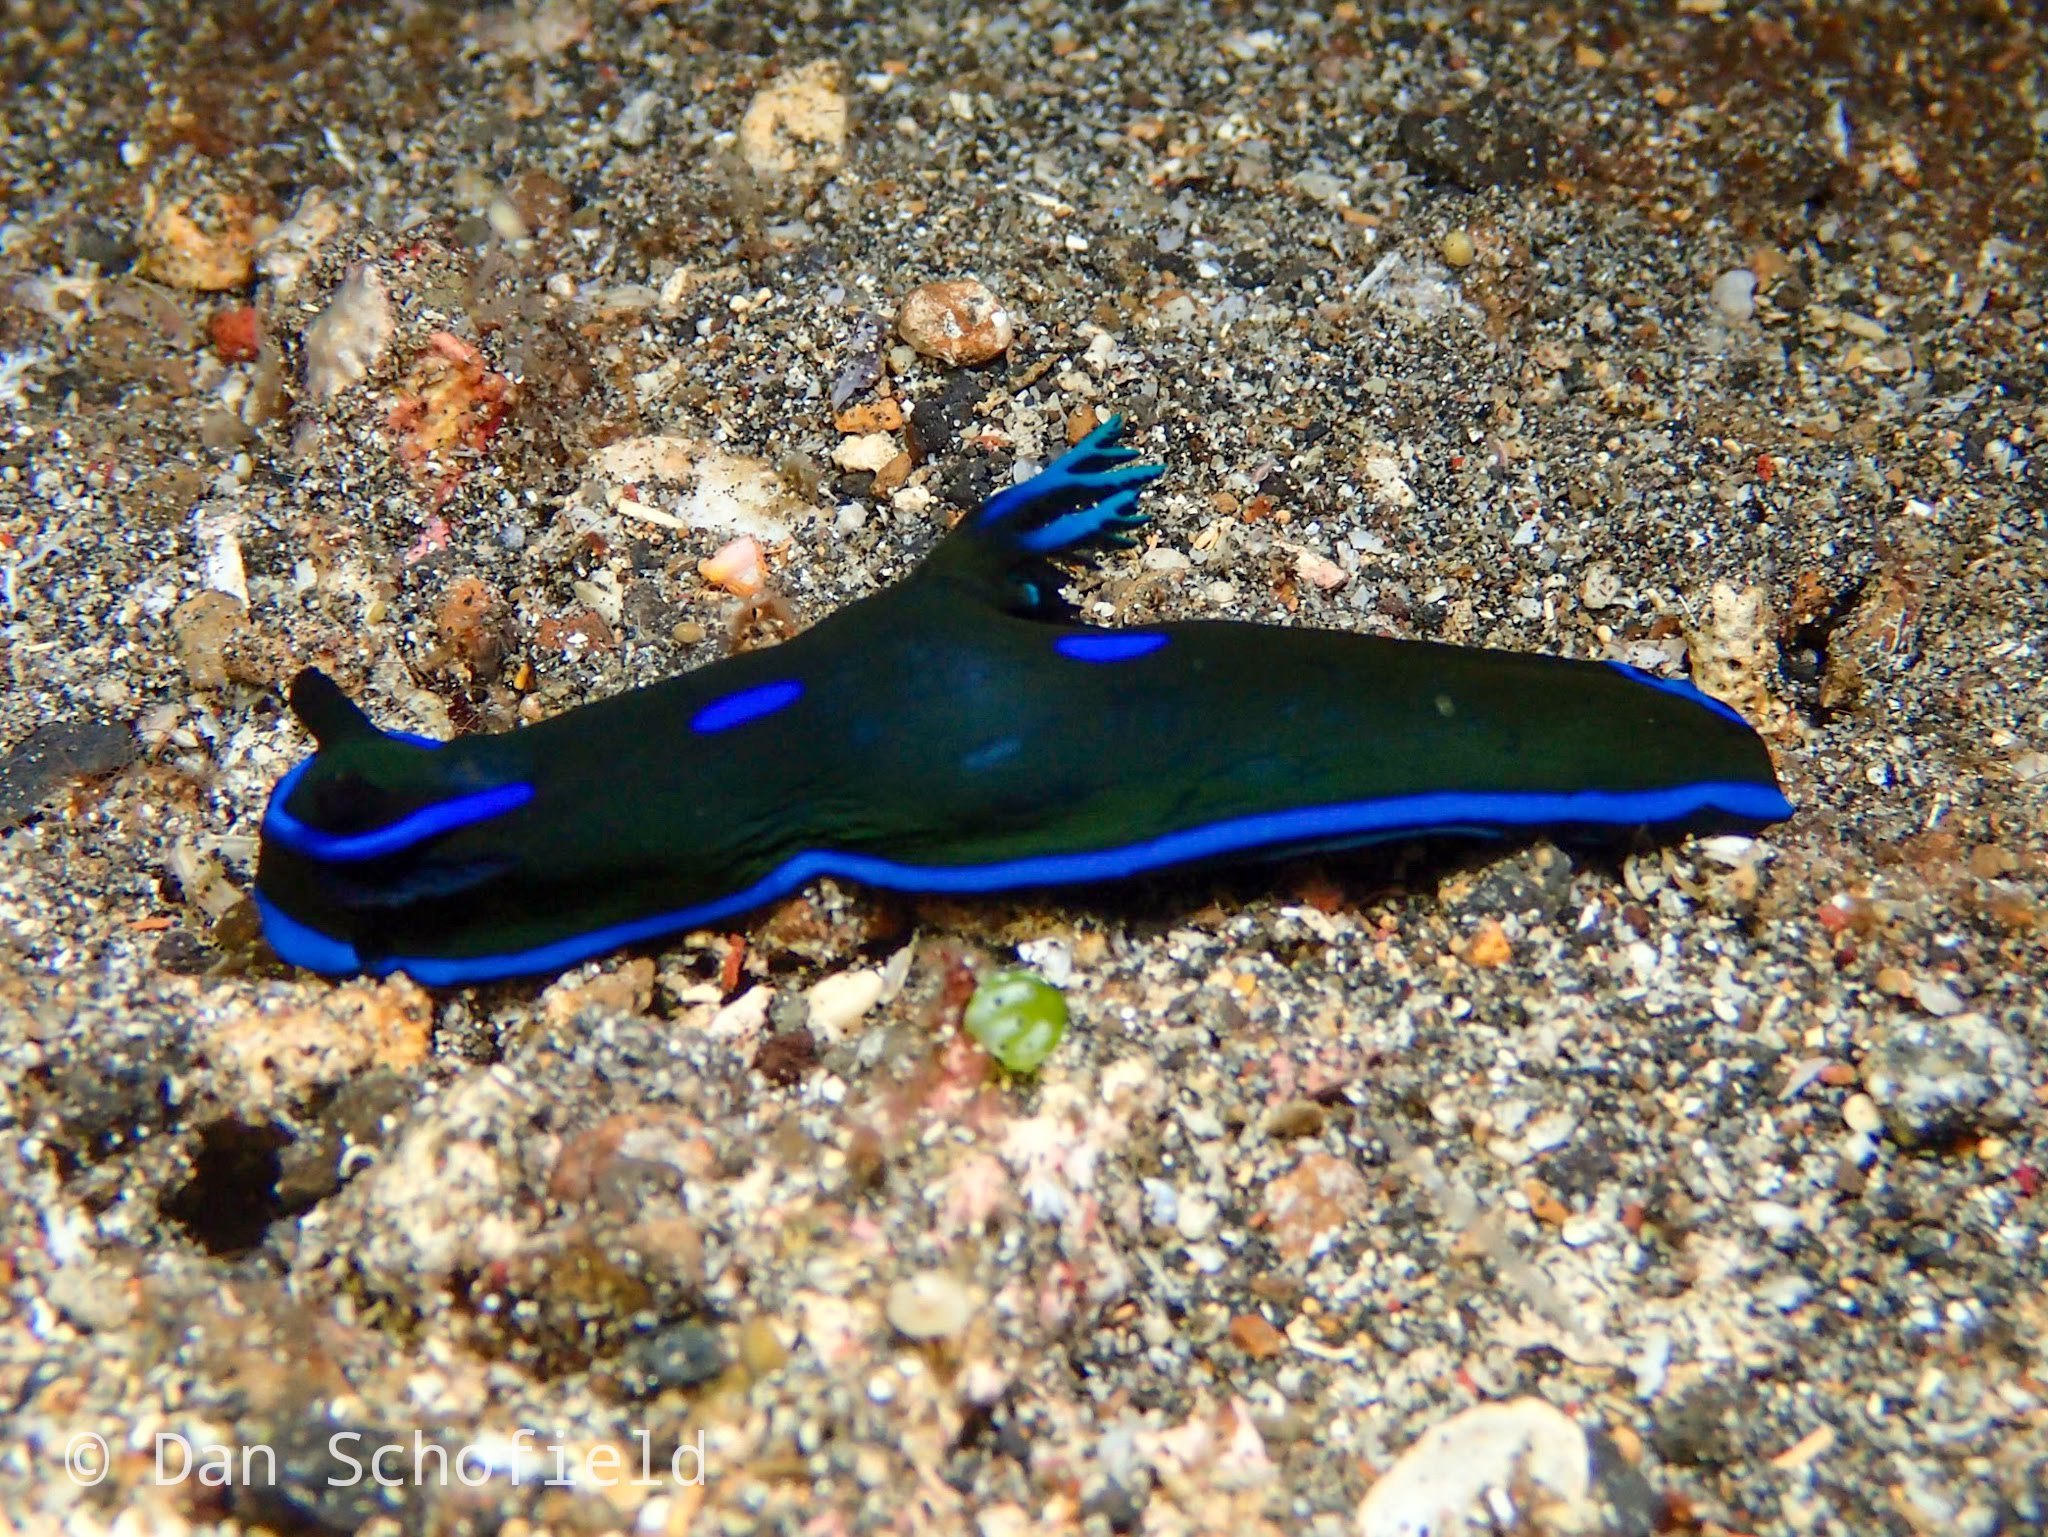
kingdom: Animalia
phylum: Mollusca
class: Gastropoda
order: Nudibranchia
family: Polyceridae
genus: Tambja
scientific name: Tambja morosa
